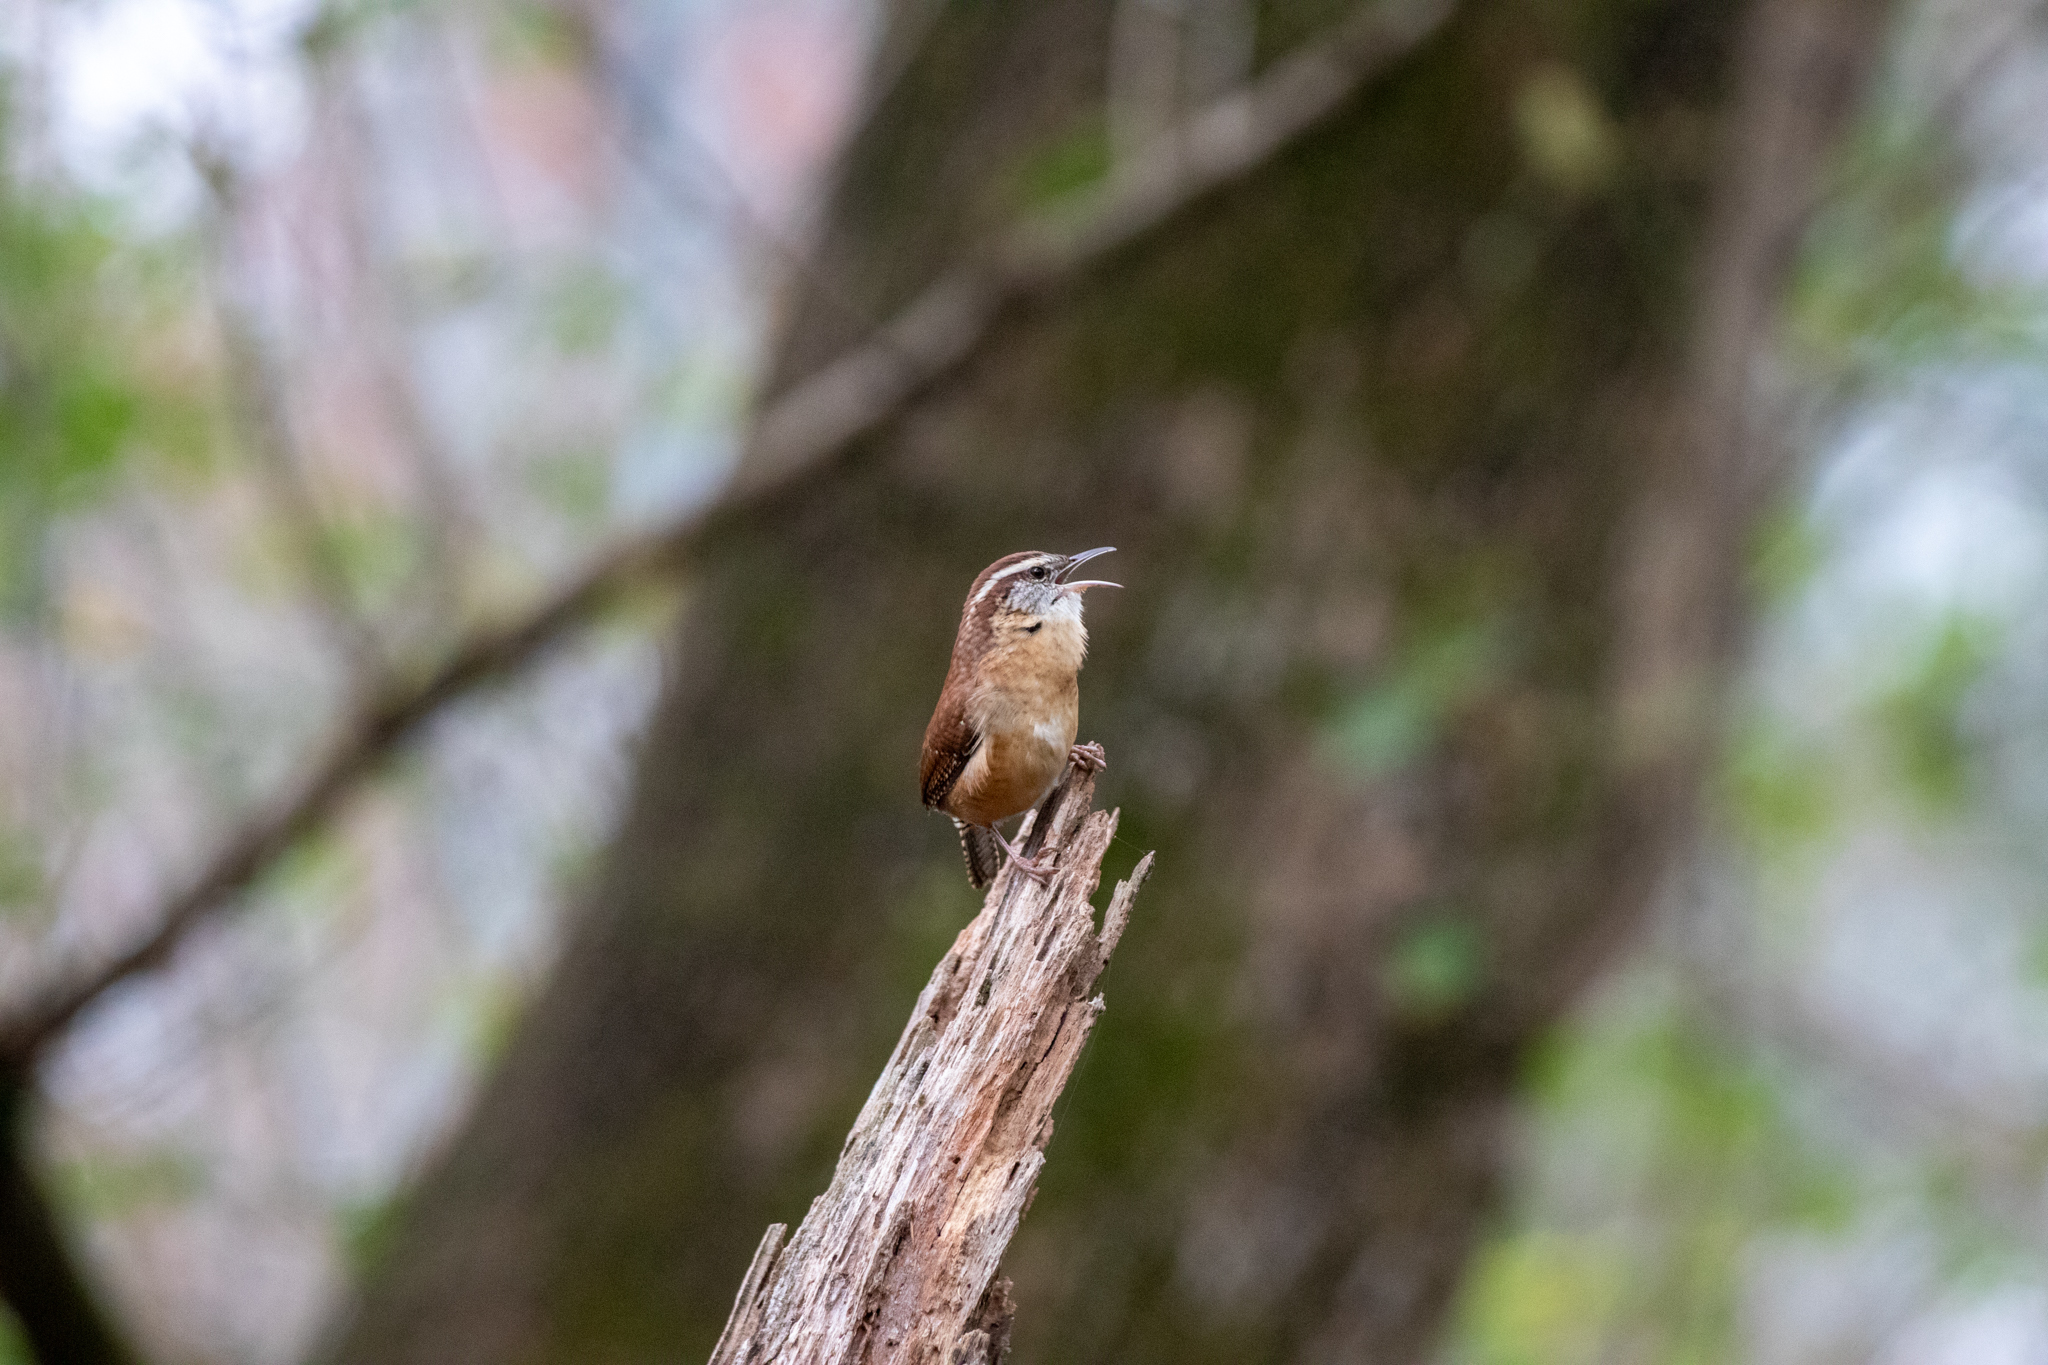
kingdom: Animalia
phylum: Chordata
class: Aves
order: Passeriformes
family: Troglodytidae
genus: Thryothorus
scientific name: Thryothorus ludovicianus
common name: Carolina wren
